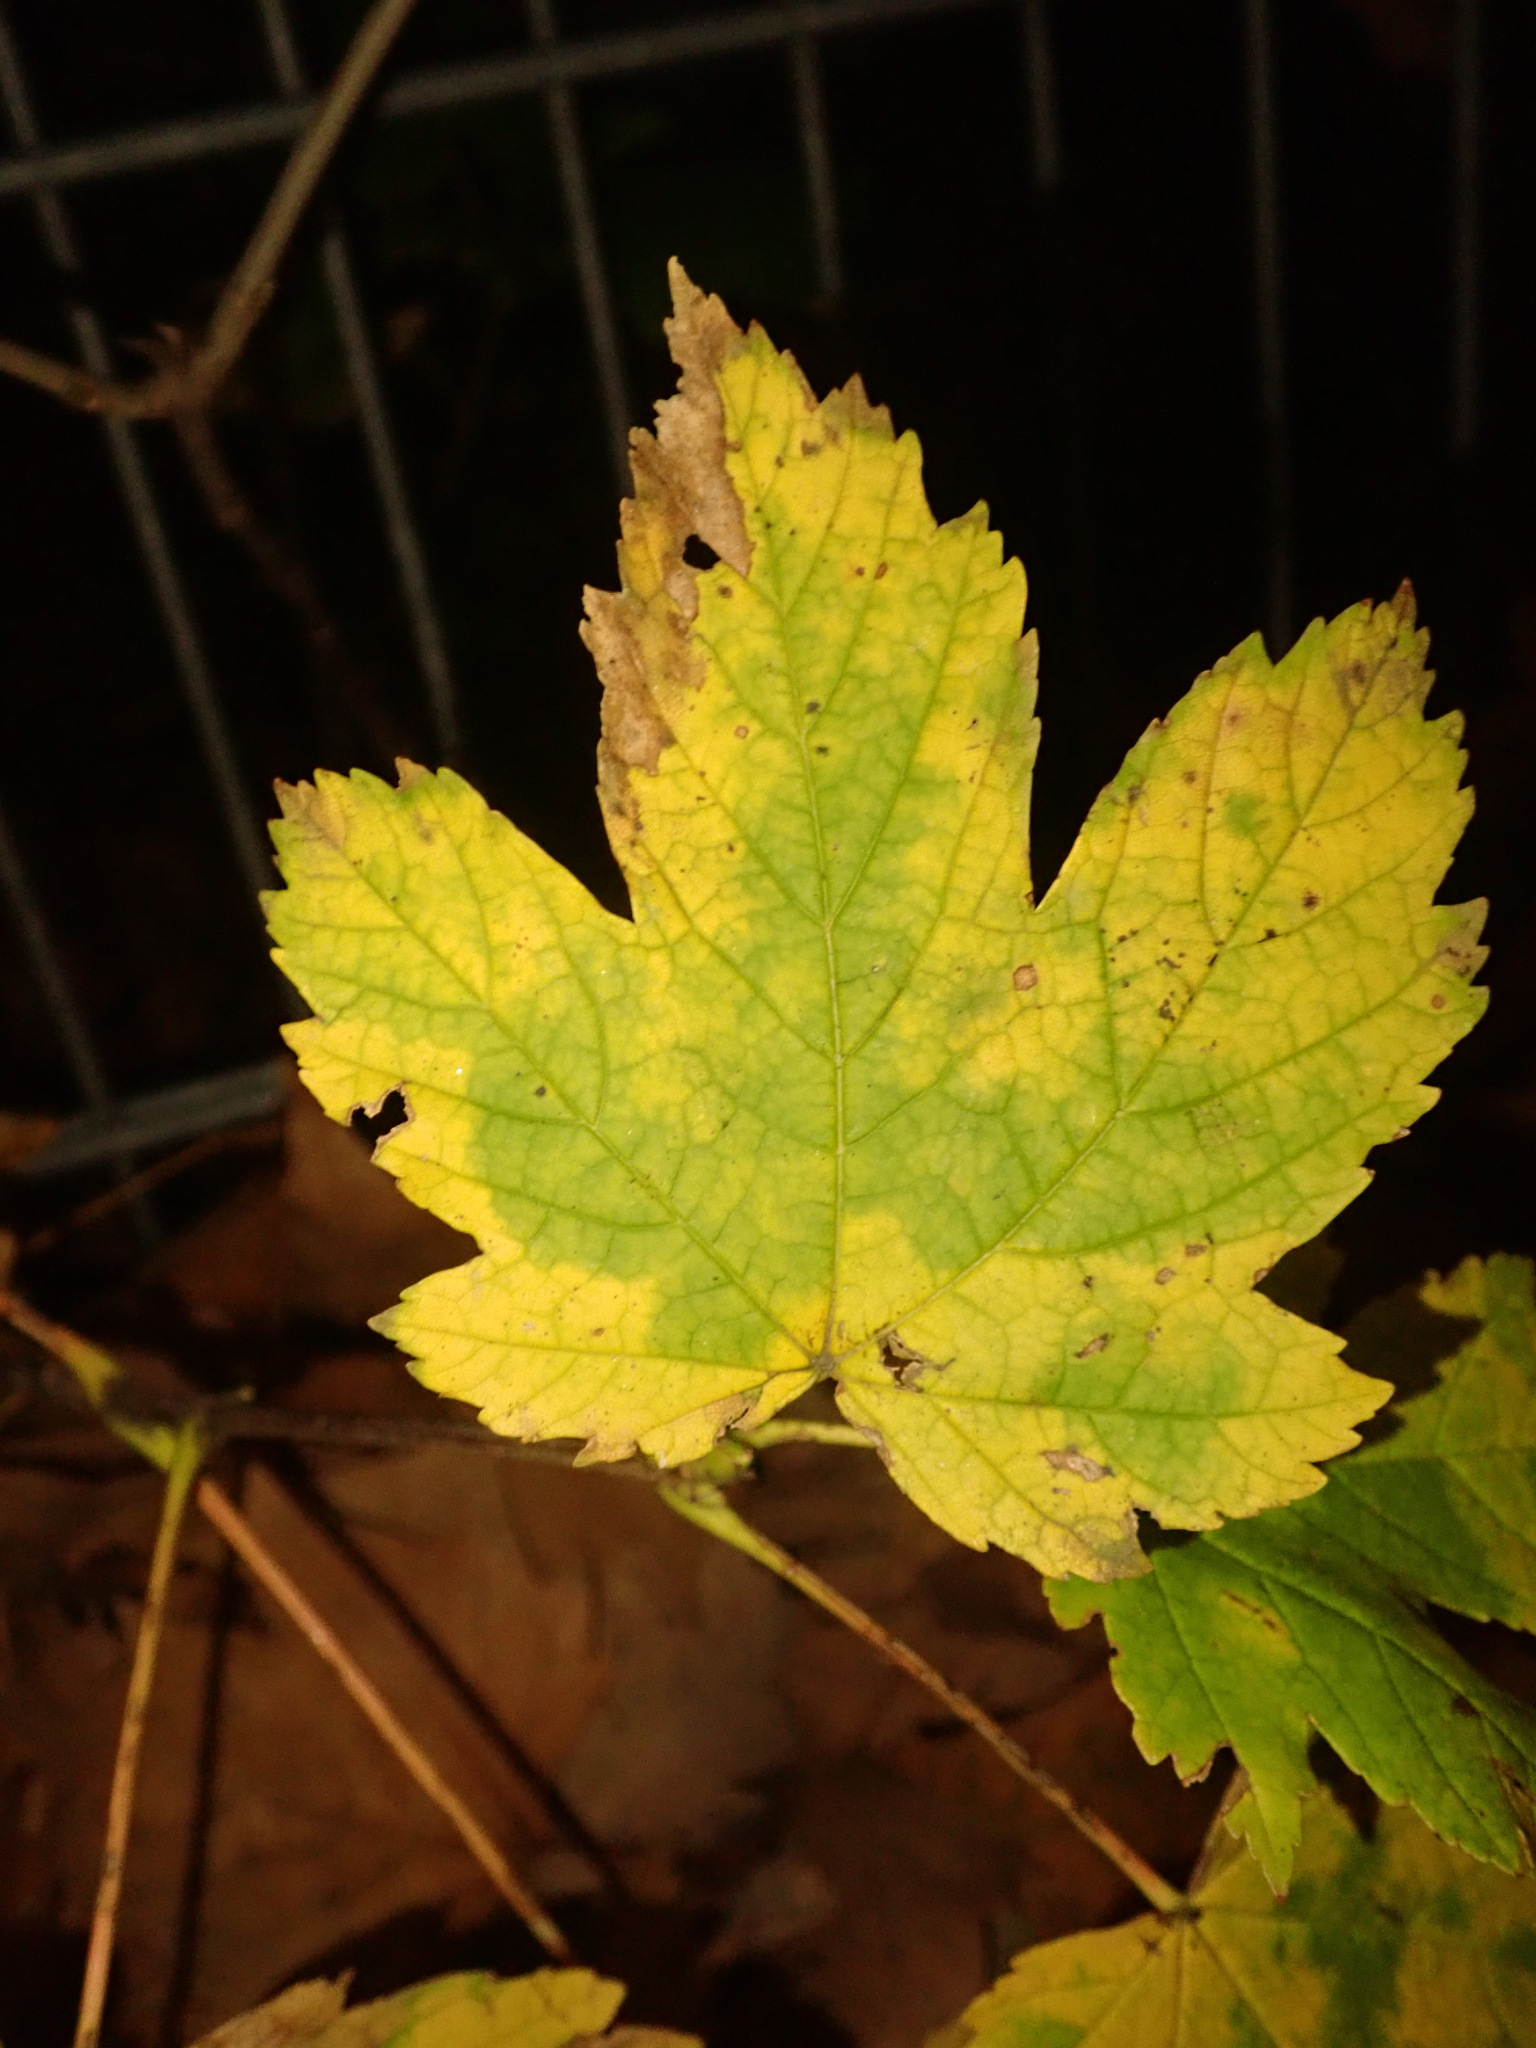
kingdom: Plantae
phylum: Tracheophyta
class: Magnoliopsida
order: Sapindales
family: Sapindaceae
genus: Acer
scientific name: Acer pseudoplatanus
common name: Sycamore
